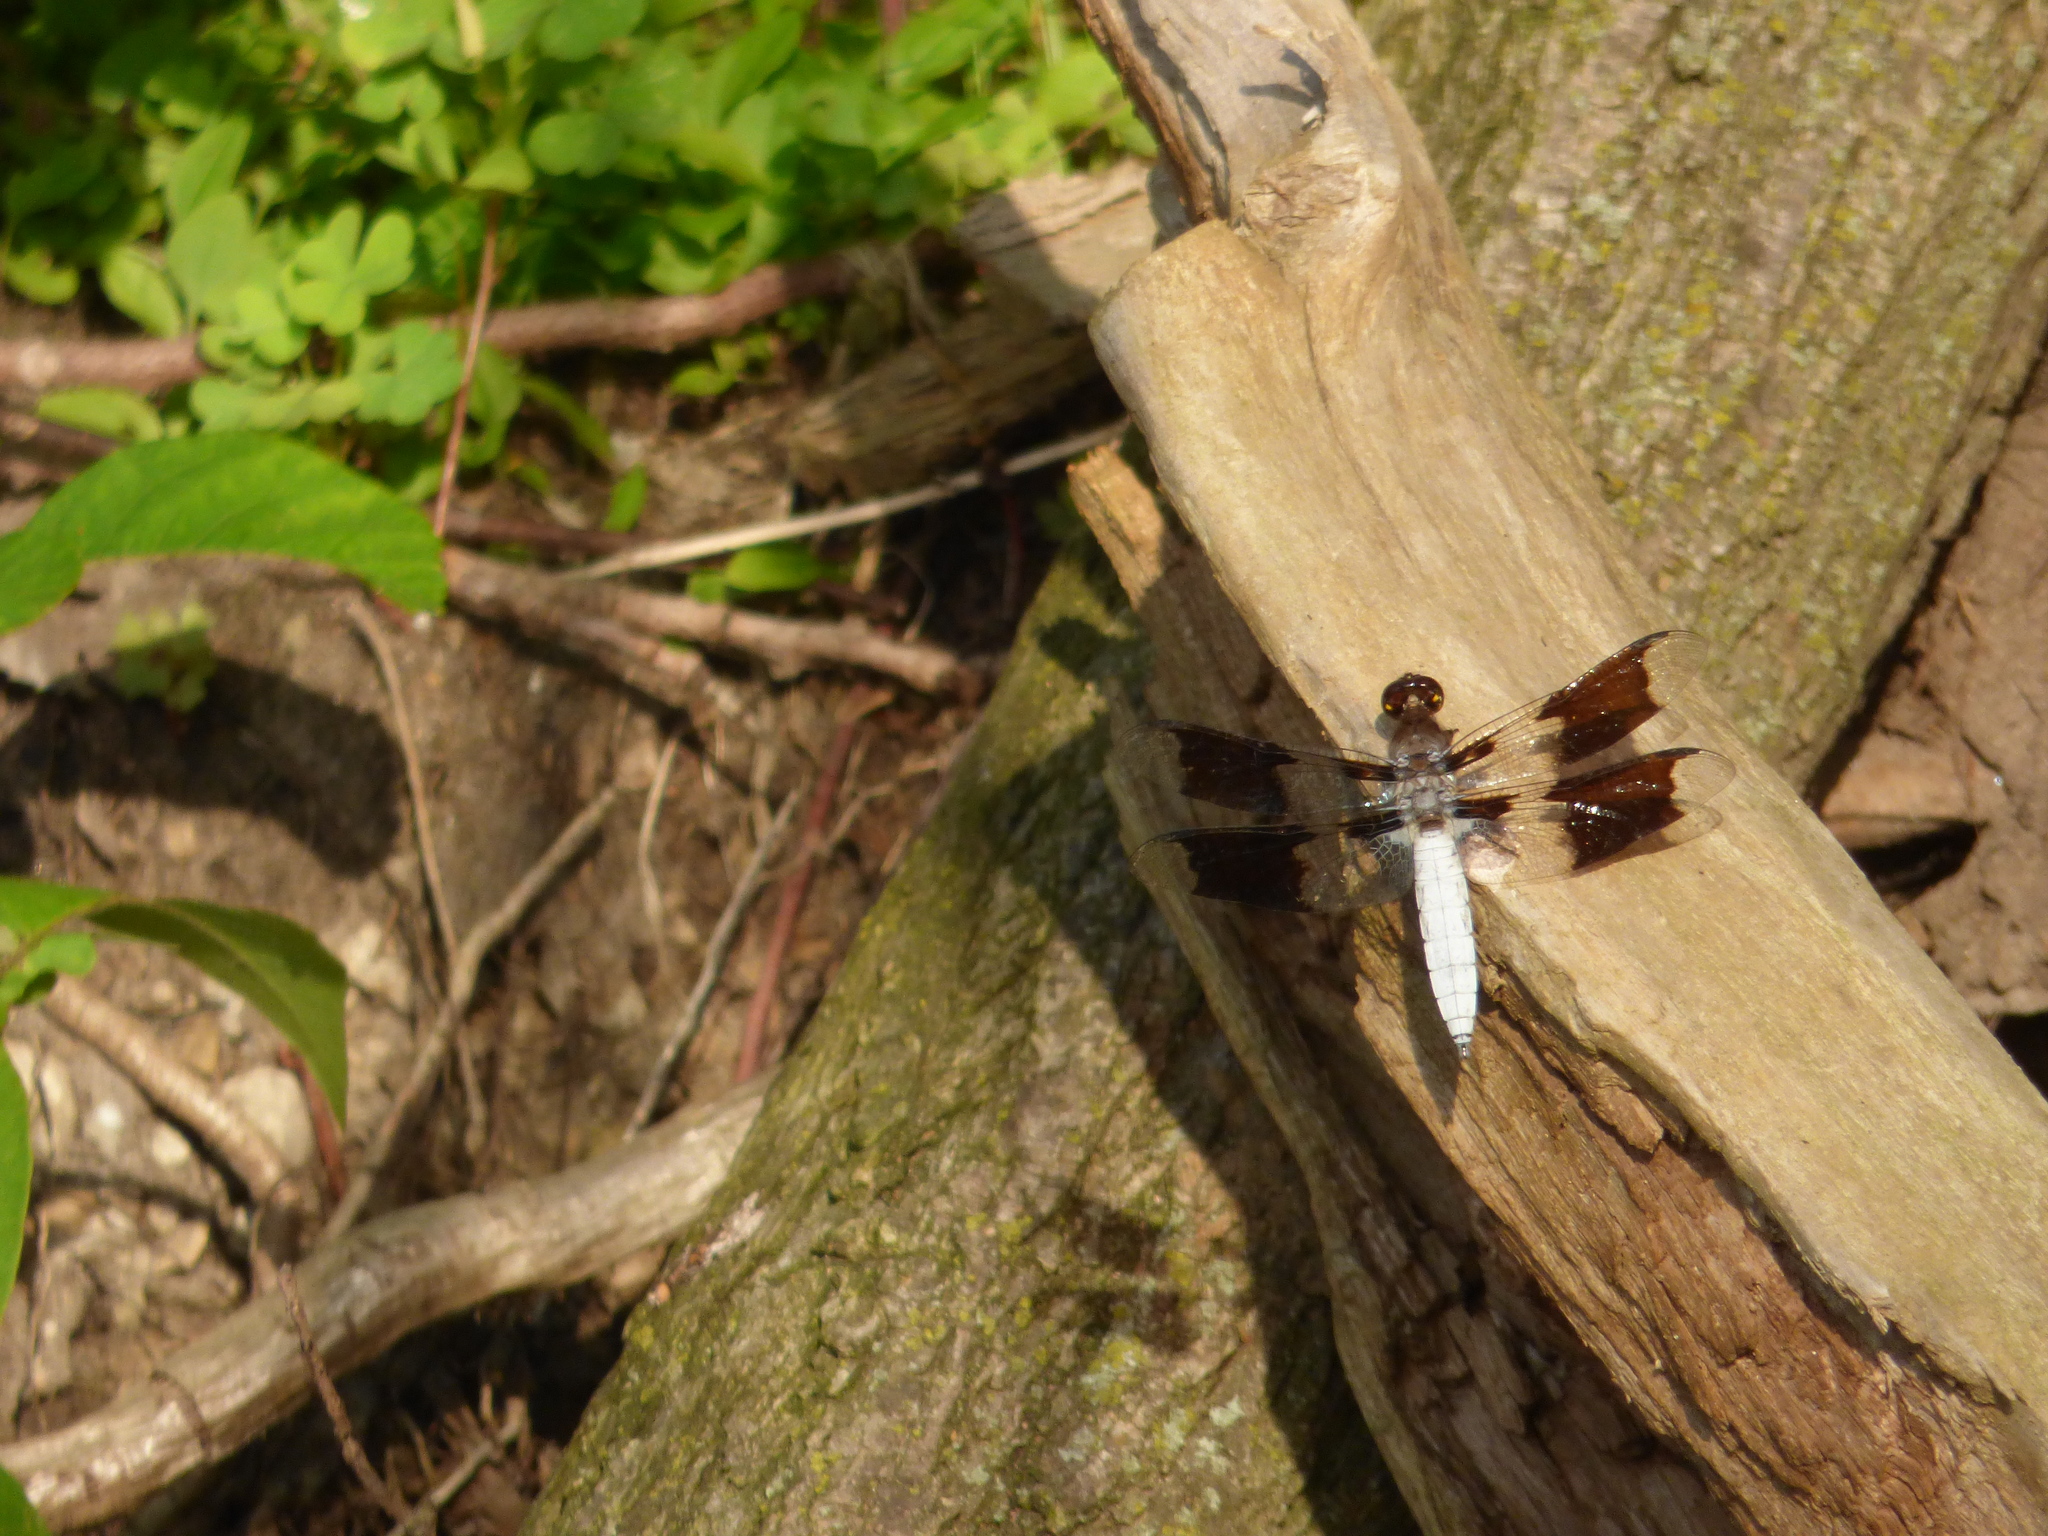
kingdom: Animalia
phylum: Arthropoda
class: Insecta
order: Odonata
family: Libellulidae
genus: Plathemis
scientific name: Plathemis lydia
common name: Common whitetail
